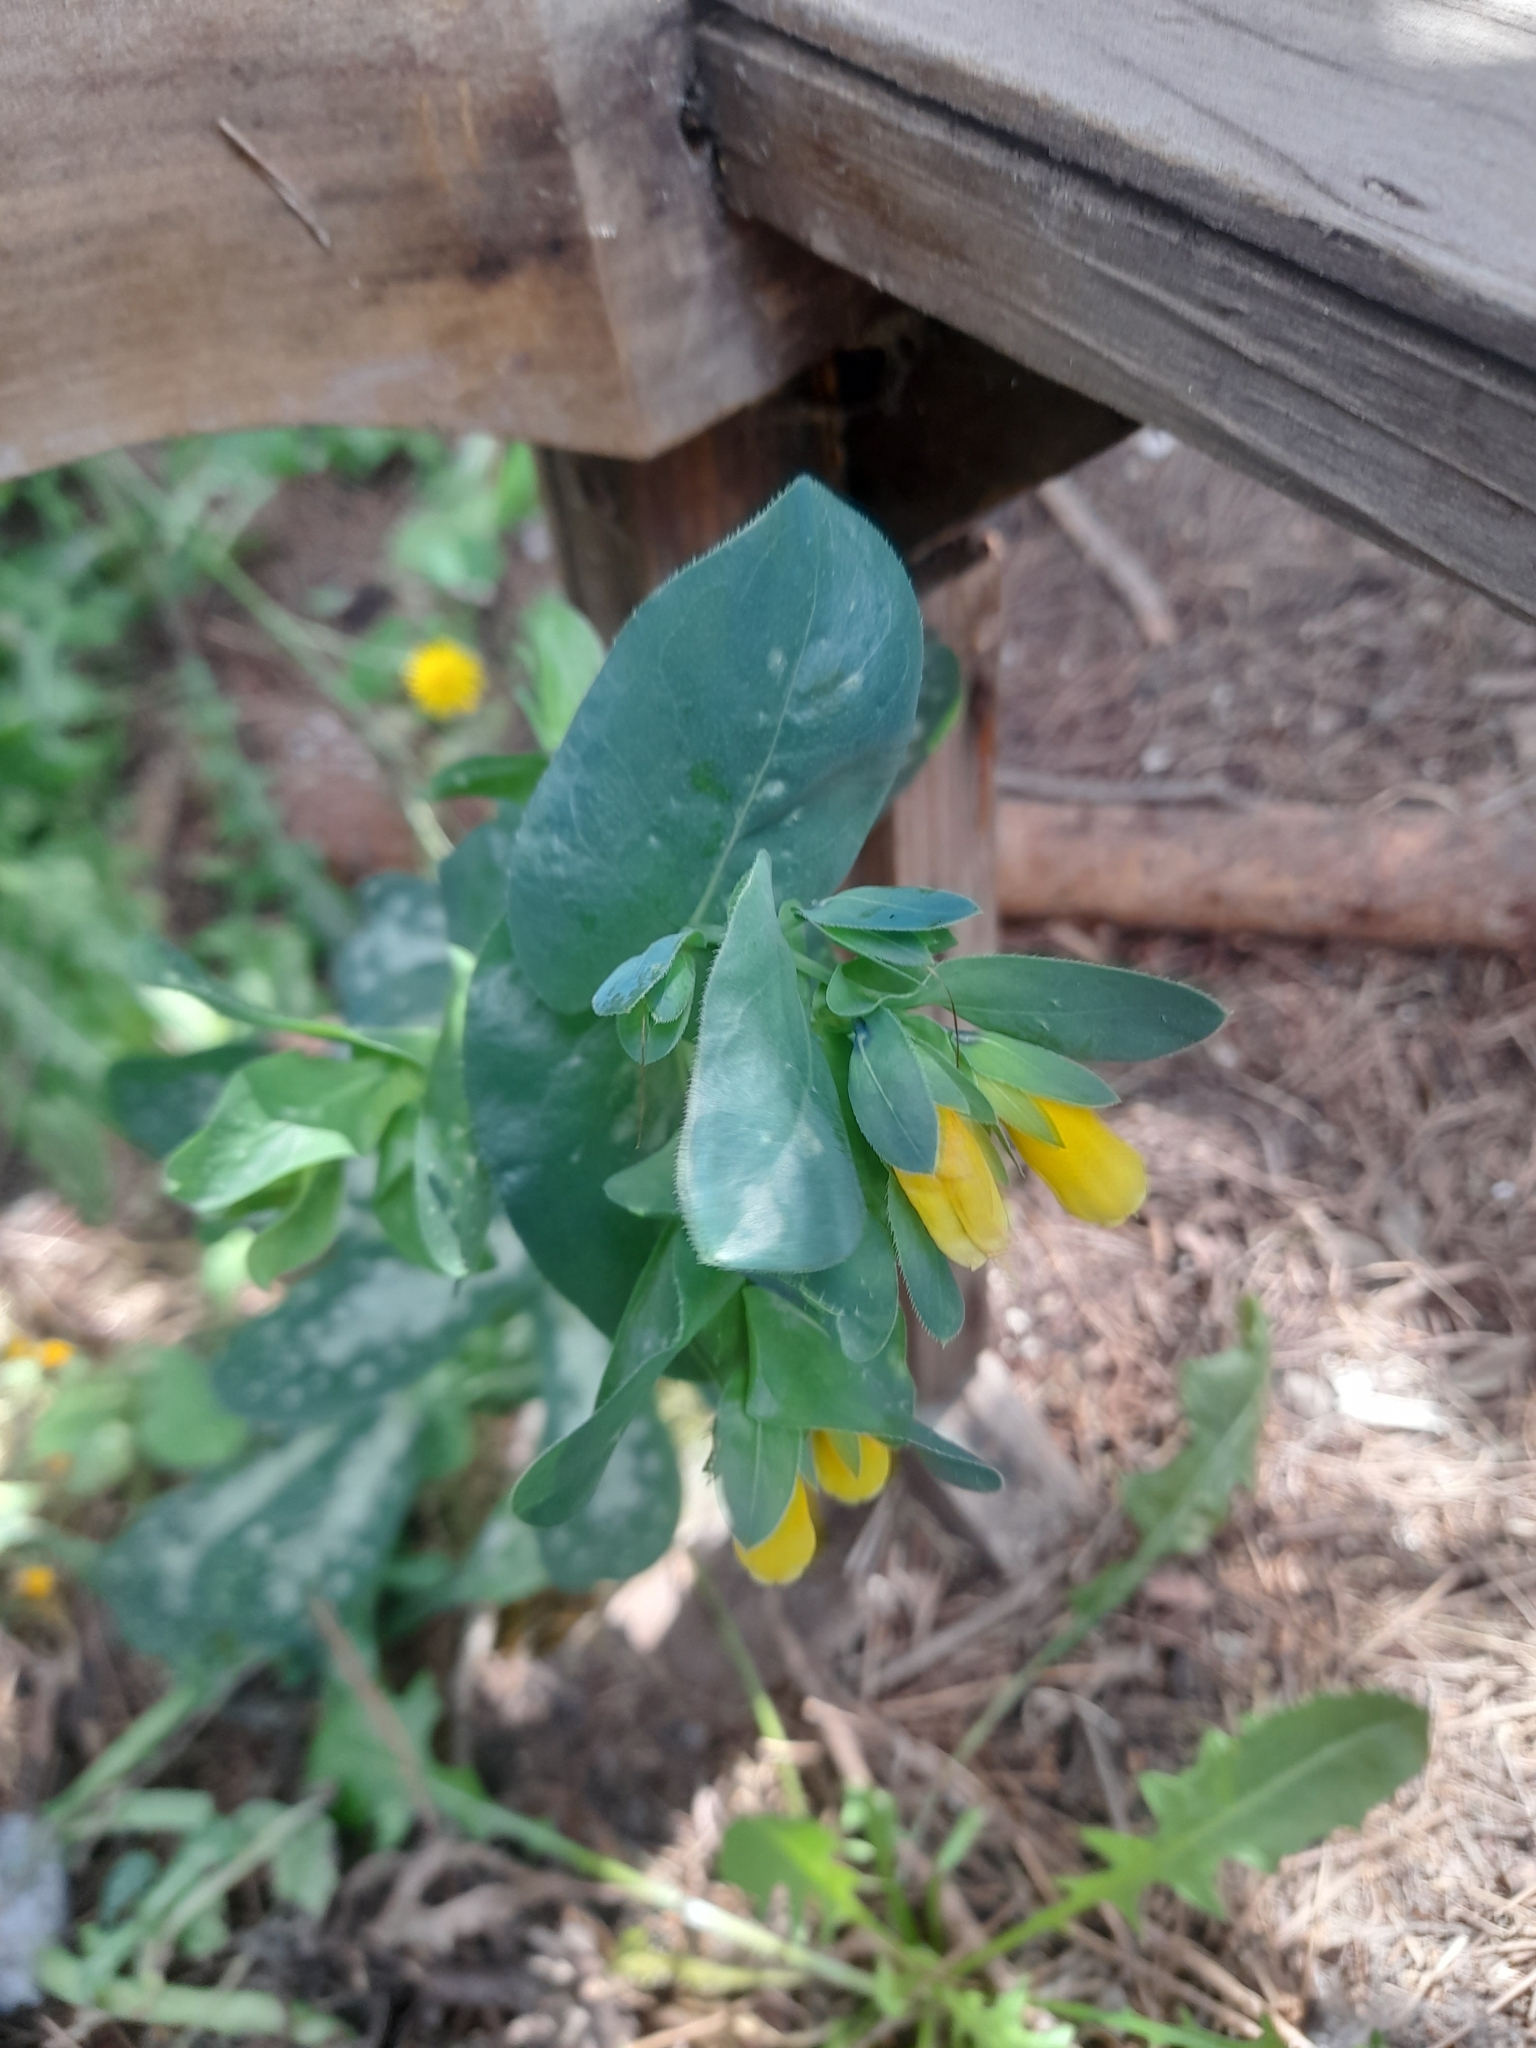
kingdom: Plantae
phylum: Tracheophyta
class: Magnoliopsida
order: Boraginales
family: Boraginaceae
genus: Cerinthe
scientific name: Cerinthe major
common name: Greater honeywort
